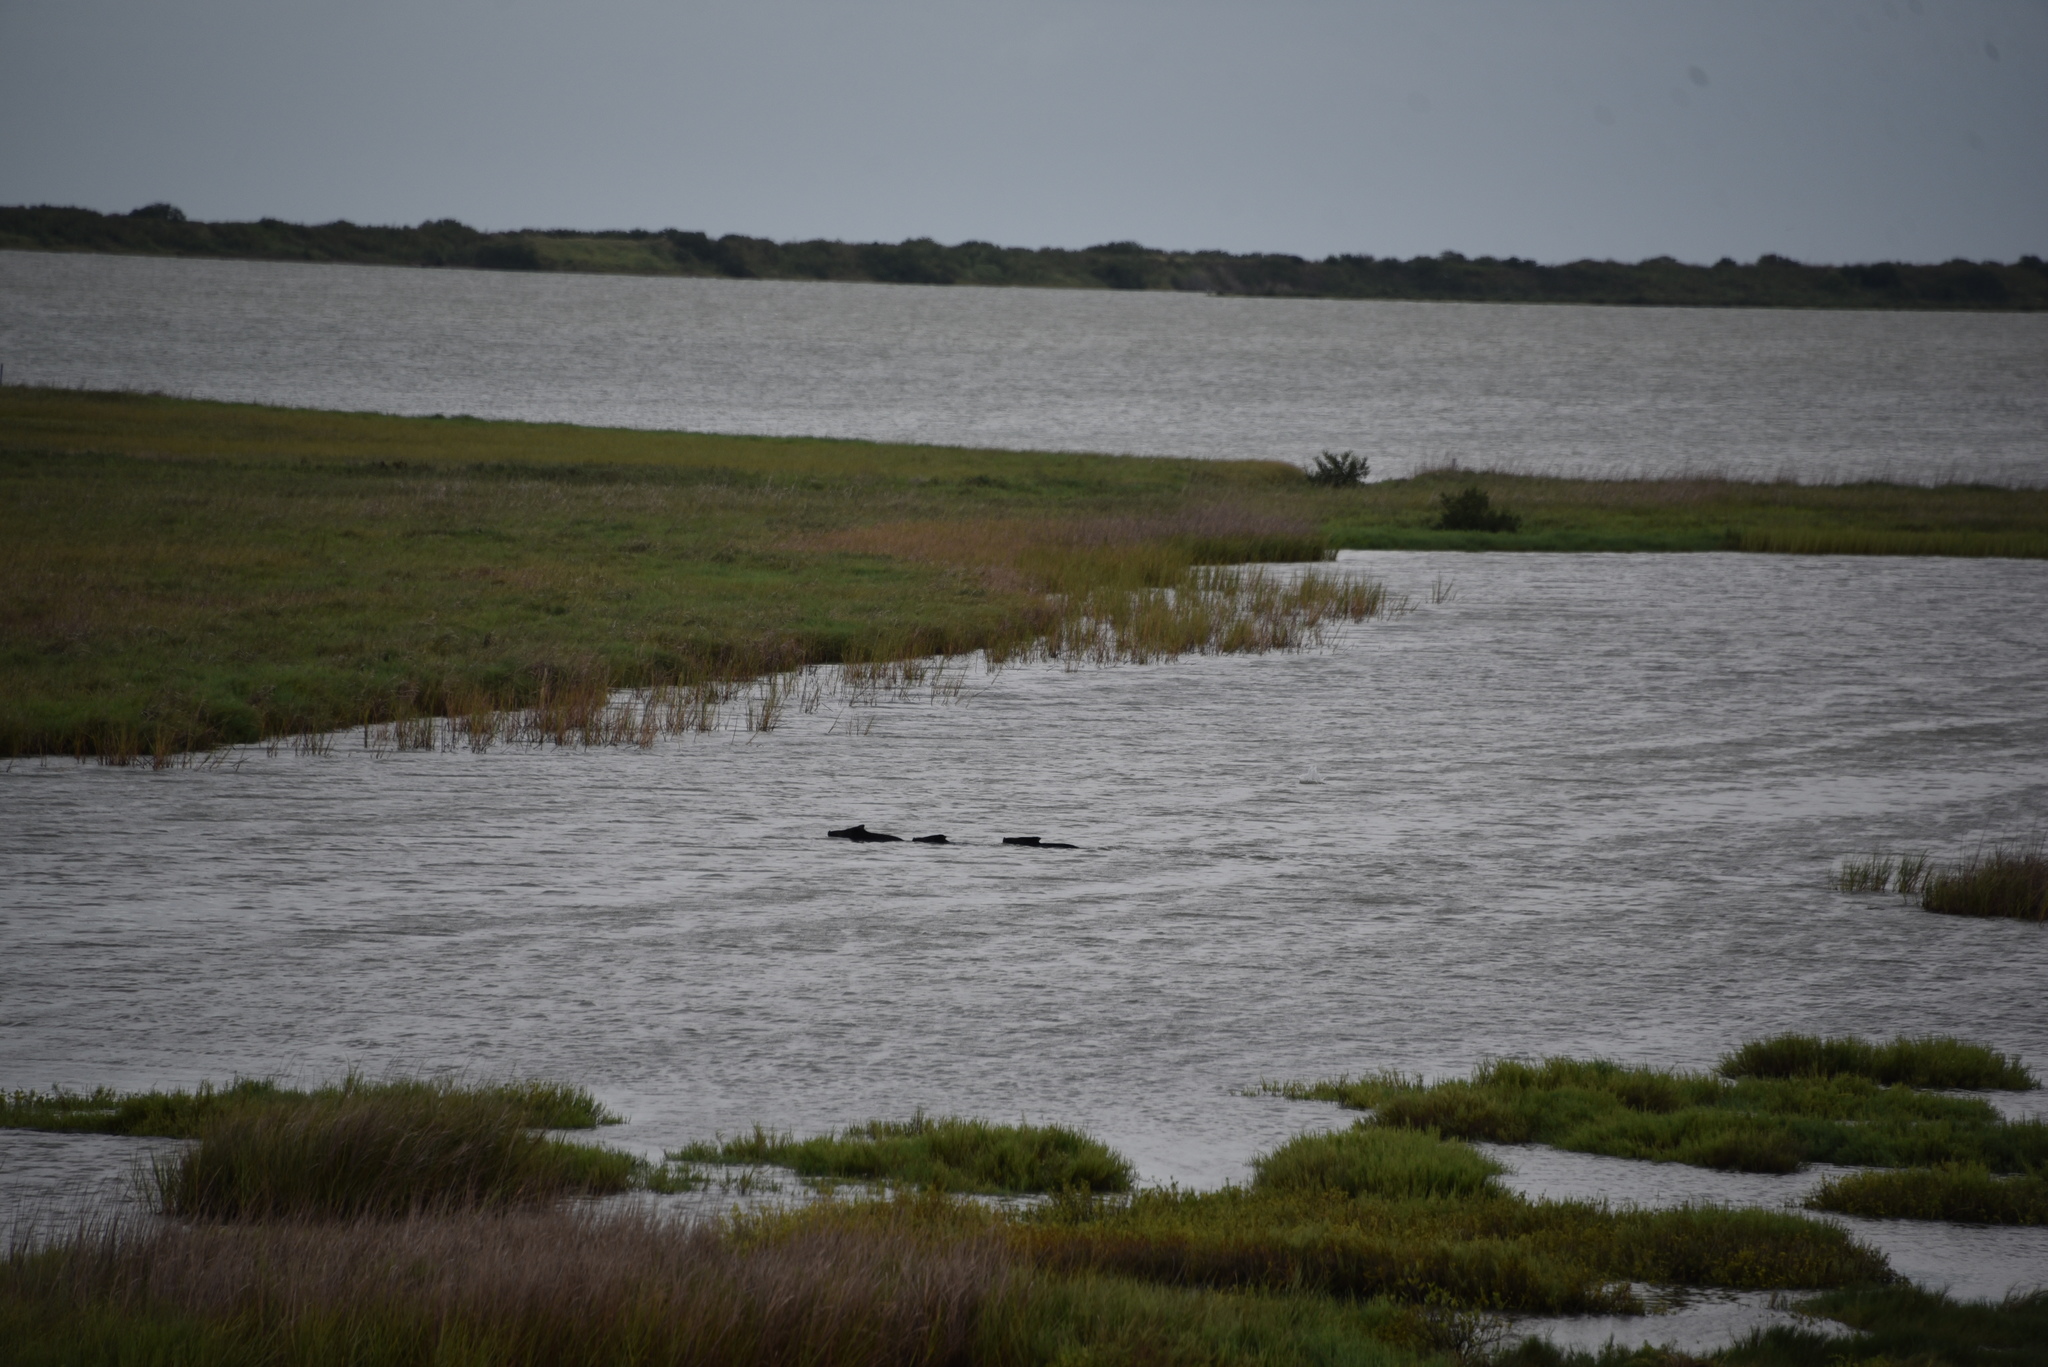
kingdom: Animalia
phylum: Chordata
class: Mammalia
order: Artiodactyla
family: Suidae
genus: Sus
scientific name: Sus scrofa
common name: Wild boar
